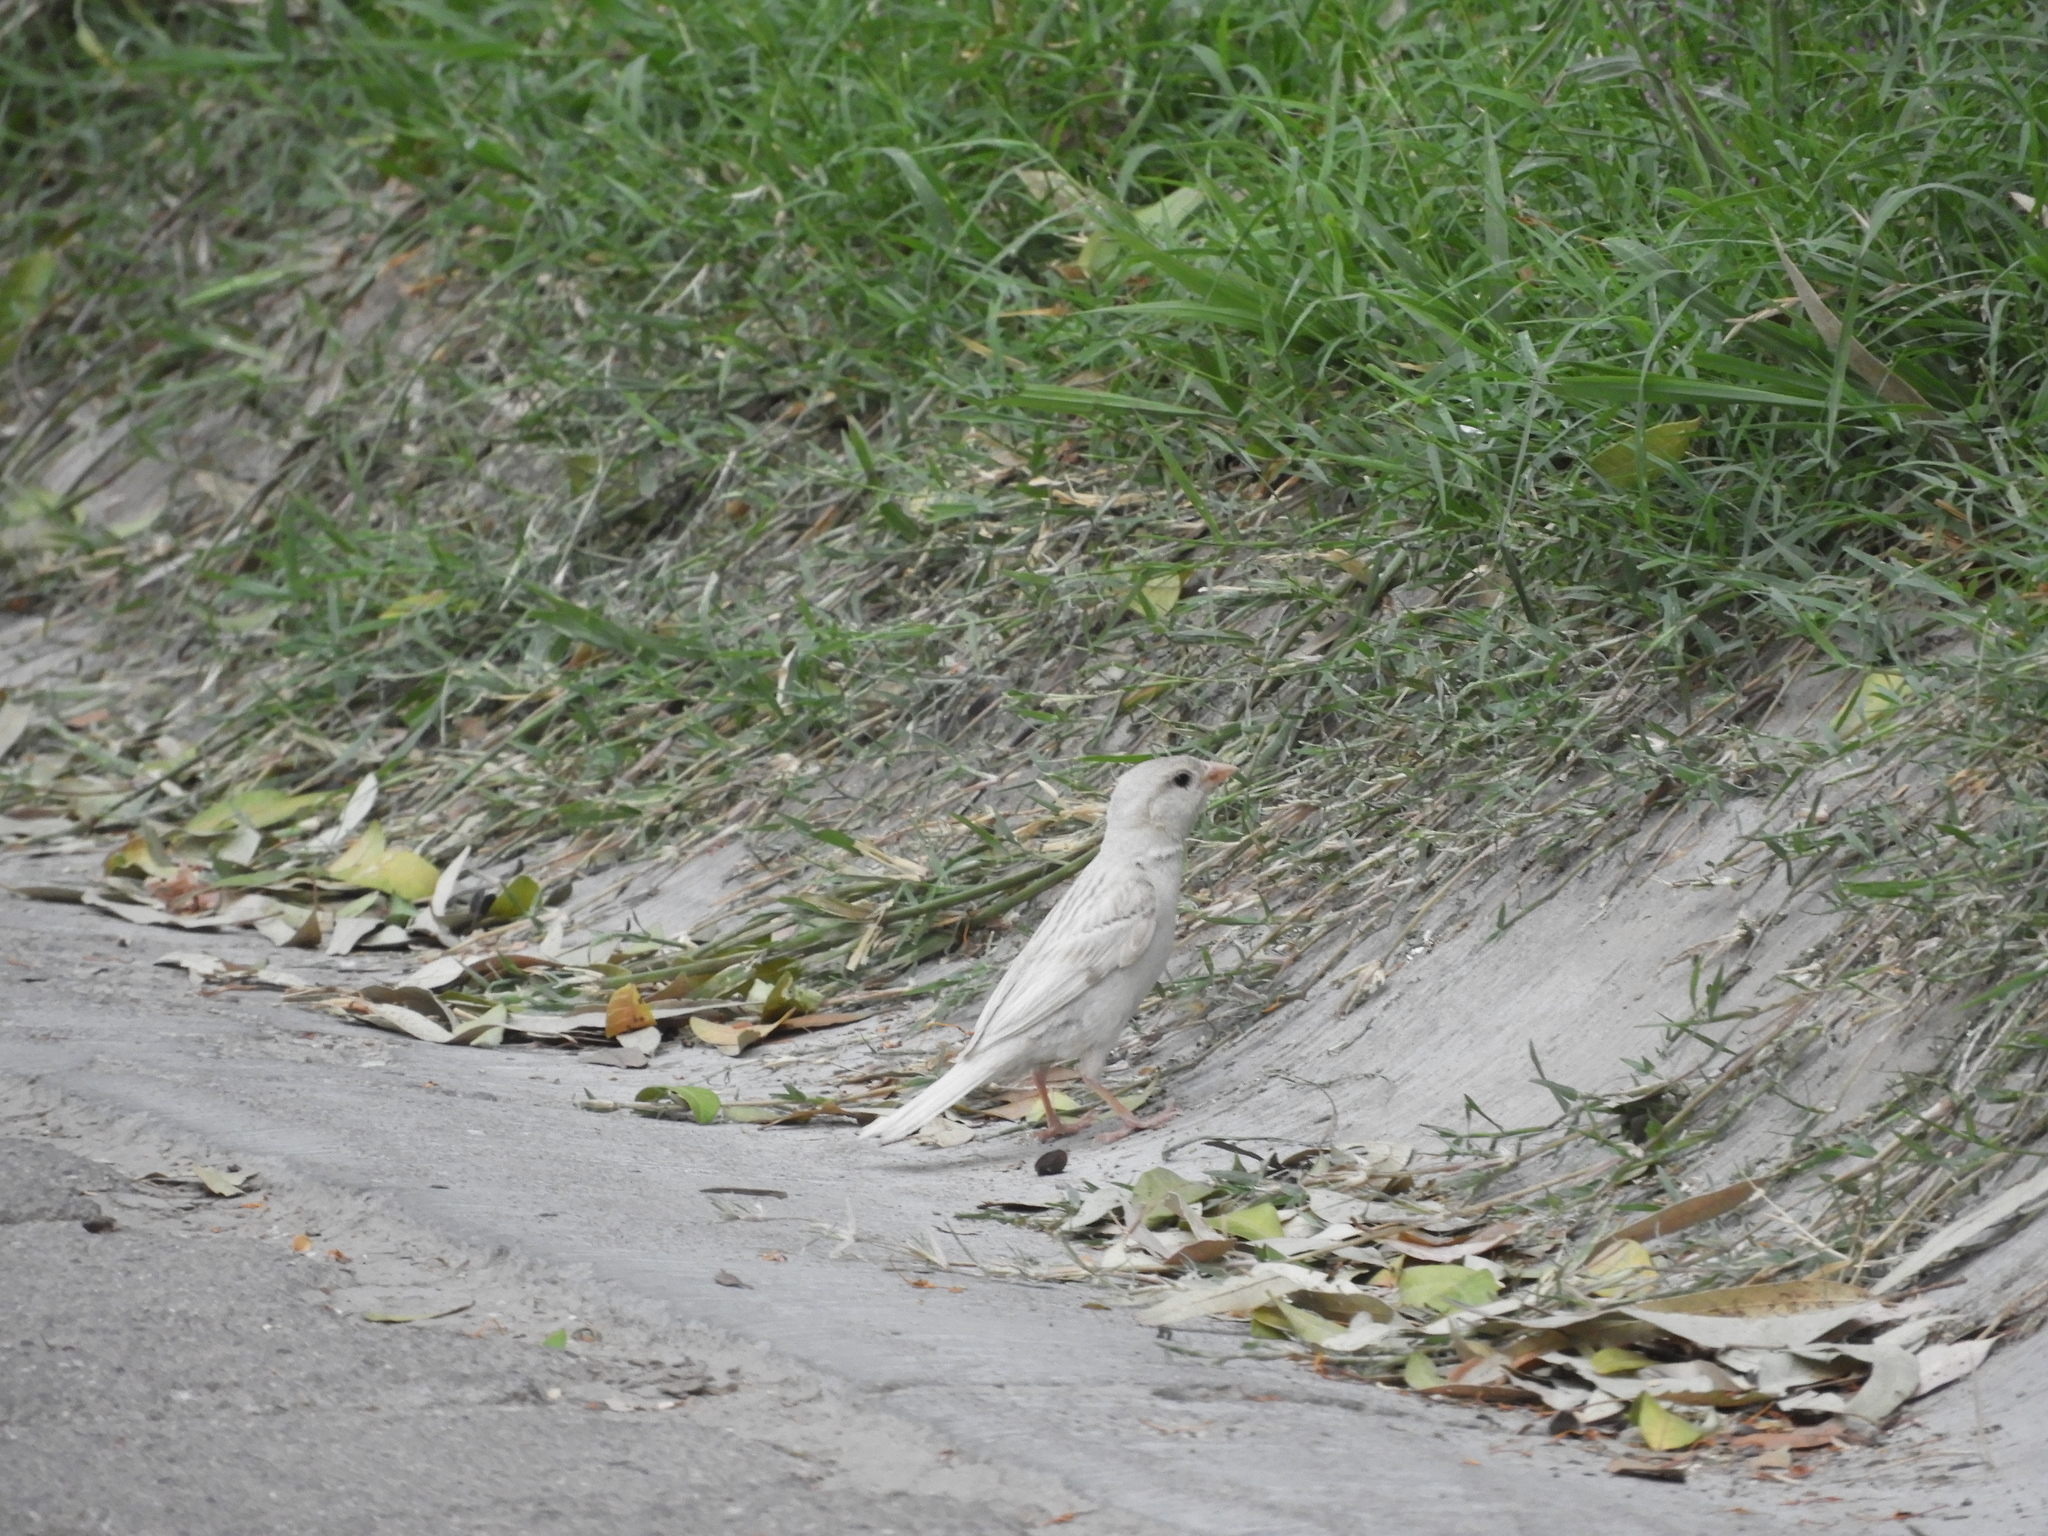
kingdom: Animalia
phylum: Chordata
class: Aves
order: Passeriformes
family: Passeridae
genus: Passer
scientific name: Passer domesticus
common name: House sparrow
